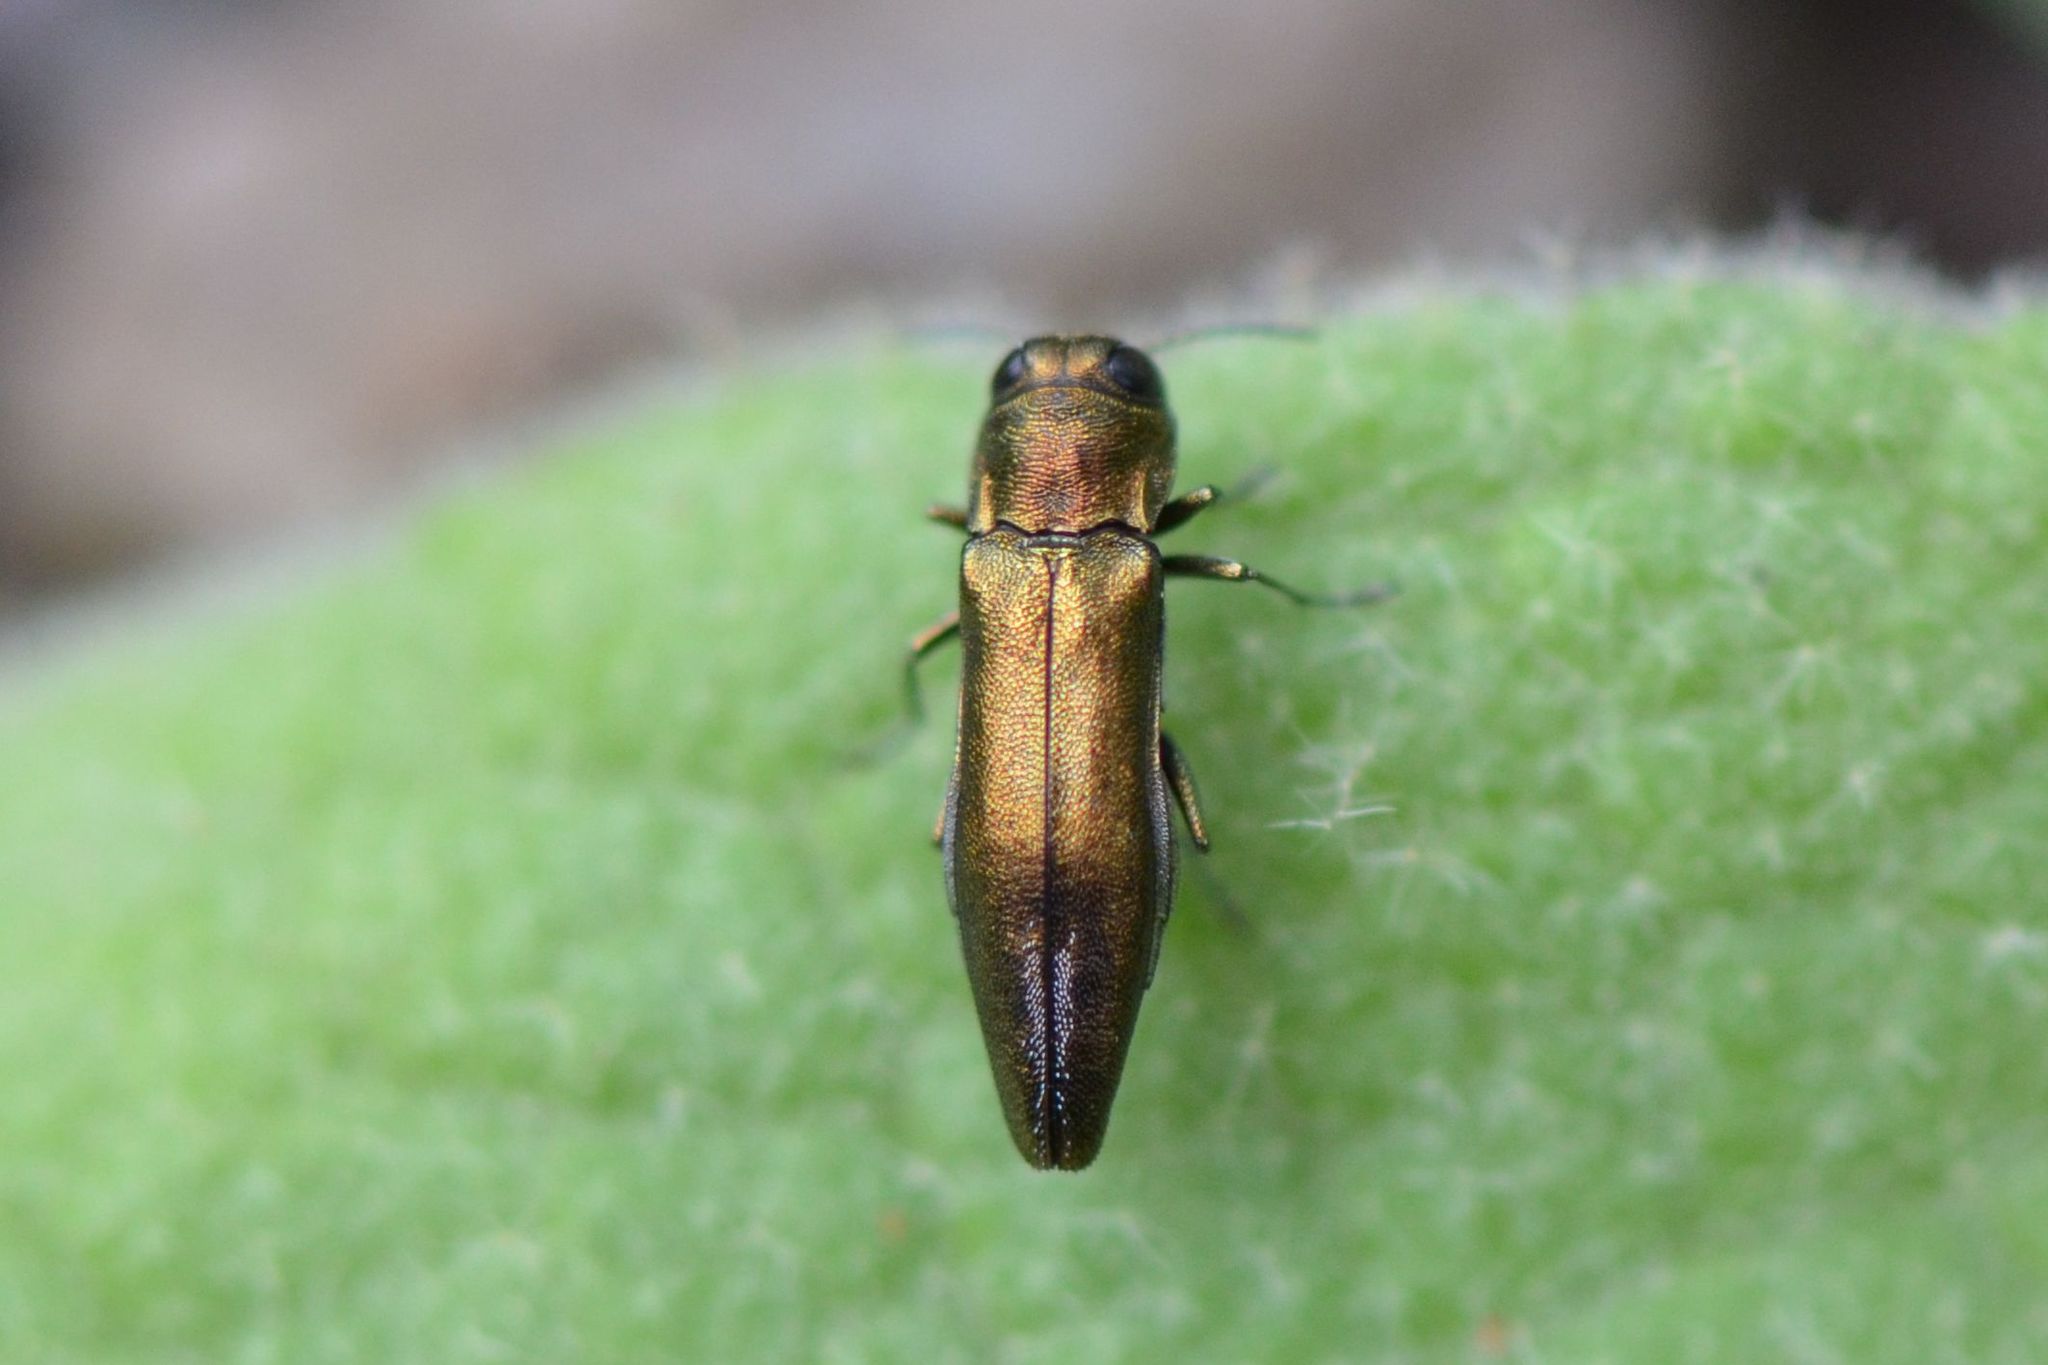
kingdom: Animalia
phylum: Arthropoda
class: Insecta
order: Coleoptera
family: Buprestidae
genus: Agrilus
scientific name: Agrilus graminis
